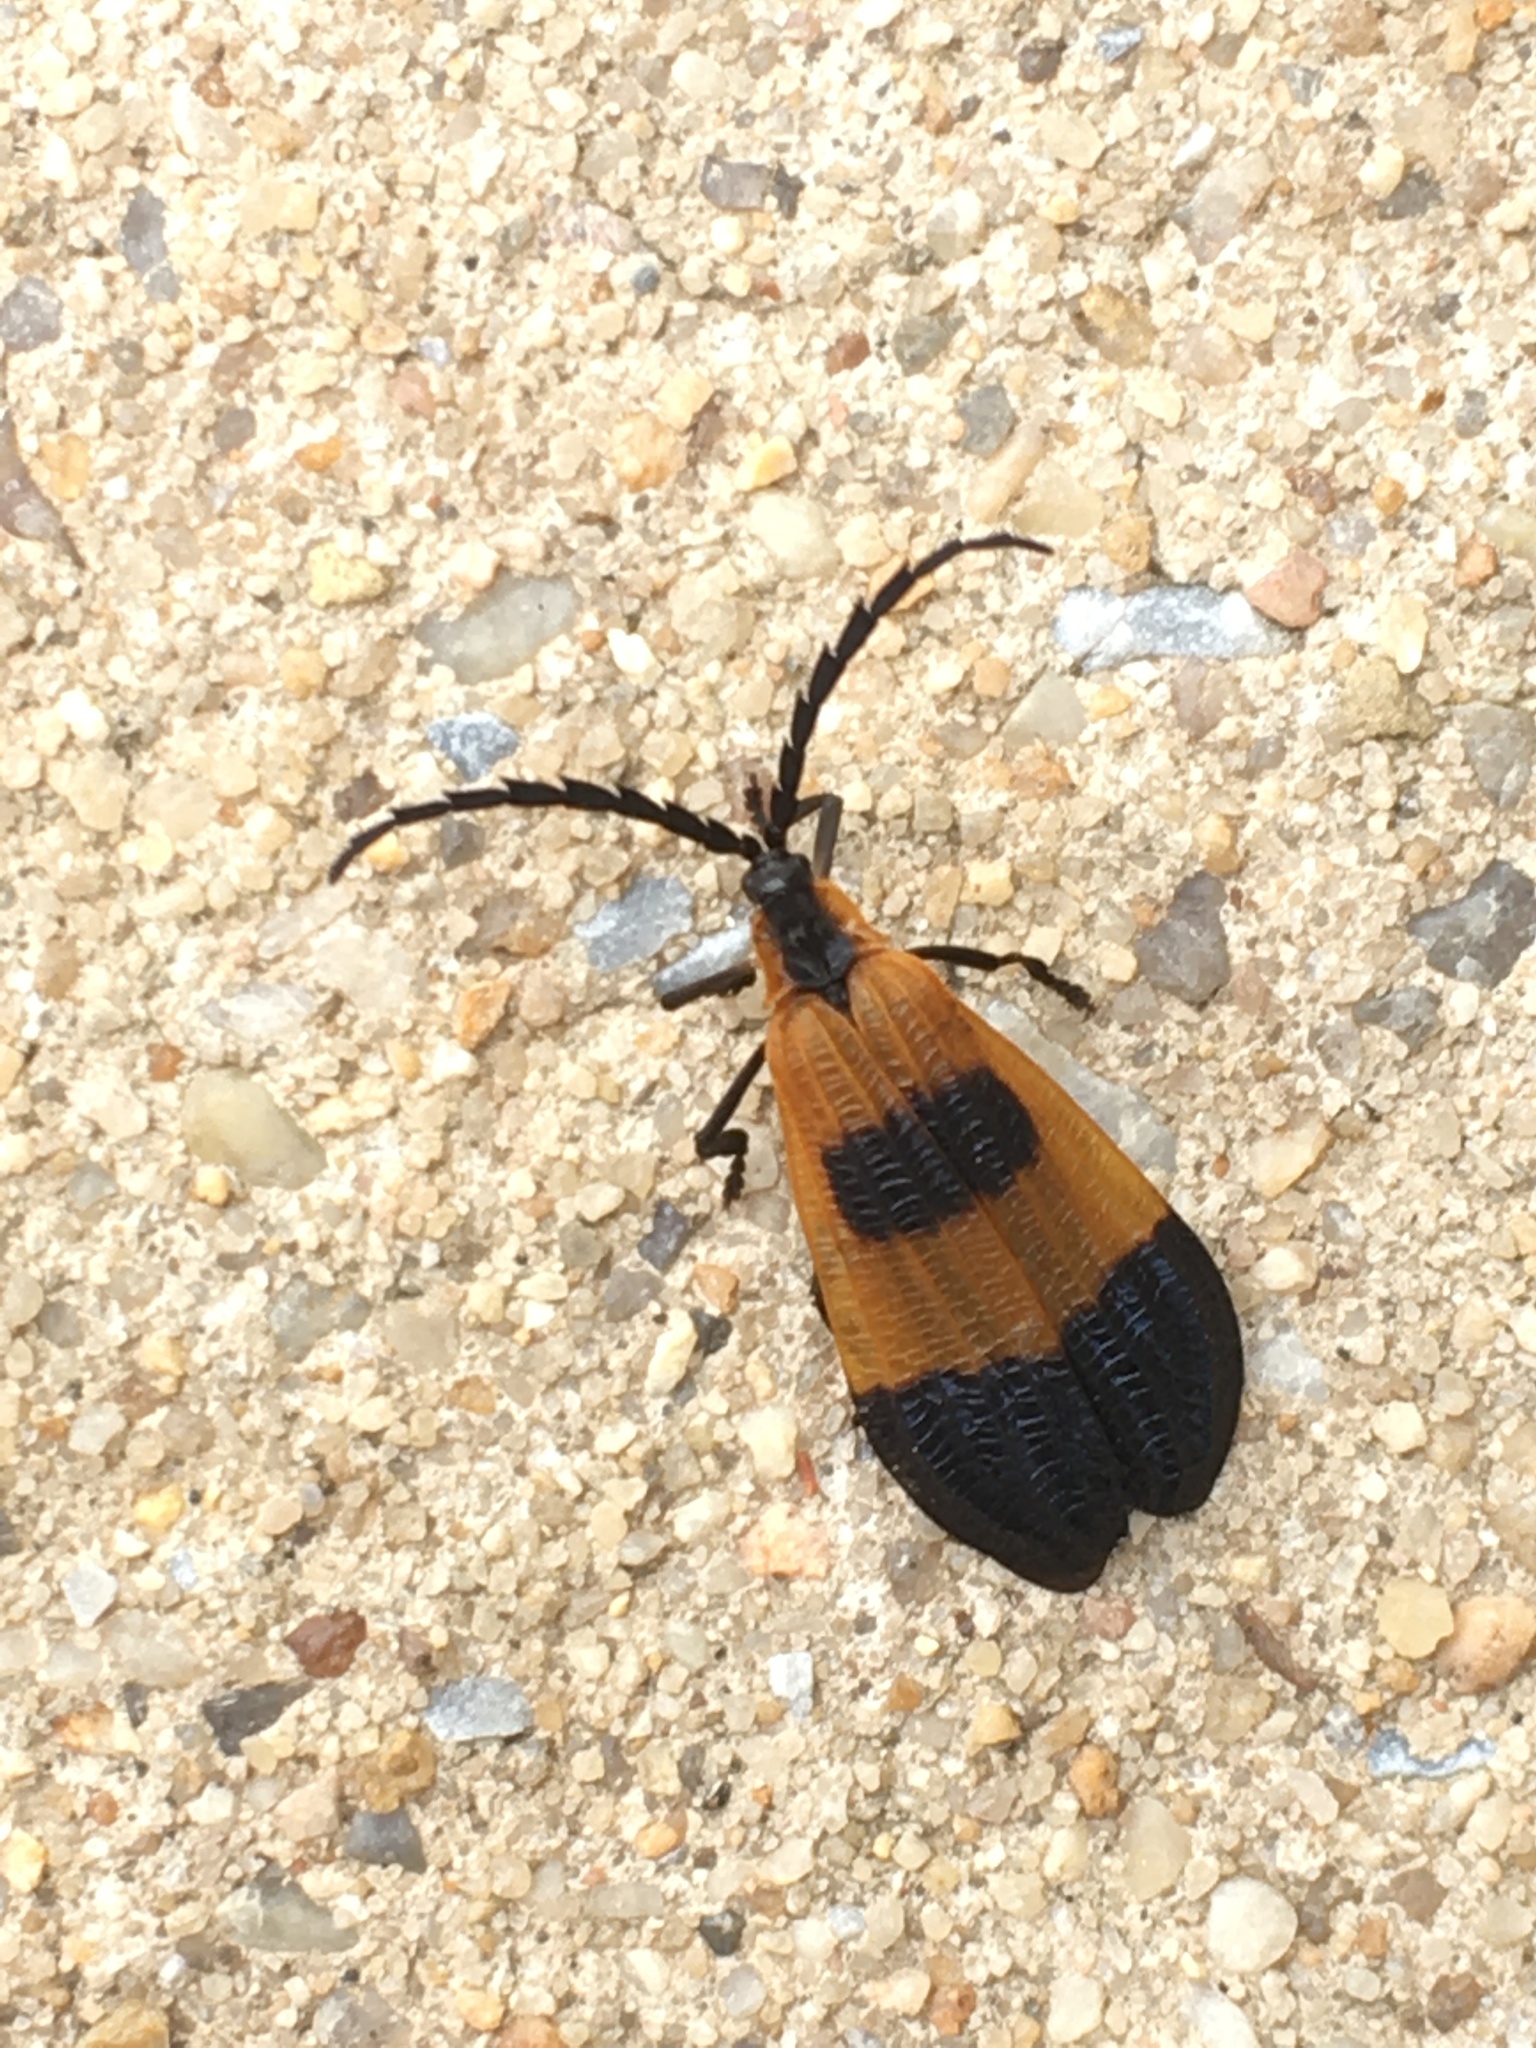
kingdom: Animalia
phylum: Arthropoda
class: Insecta
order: Coleoptera
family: Lycidae
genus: Calopteron
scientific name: Calopteron terminale
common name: End band net-winged beetle
